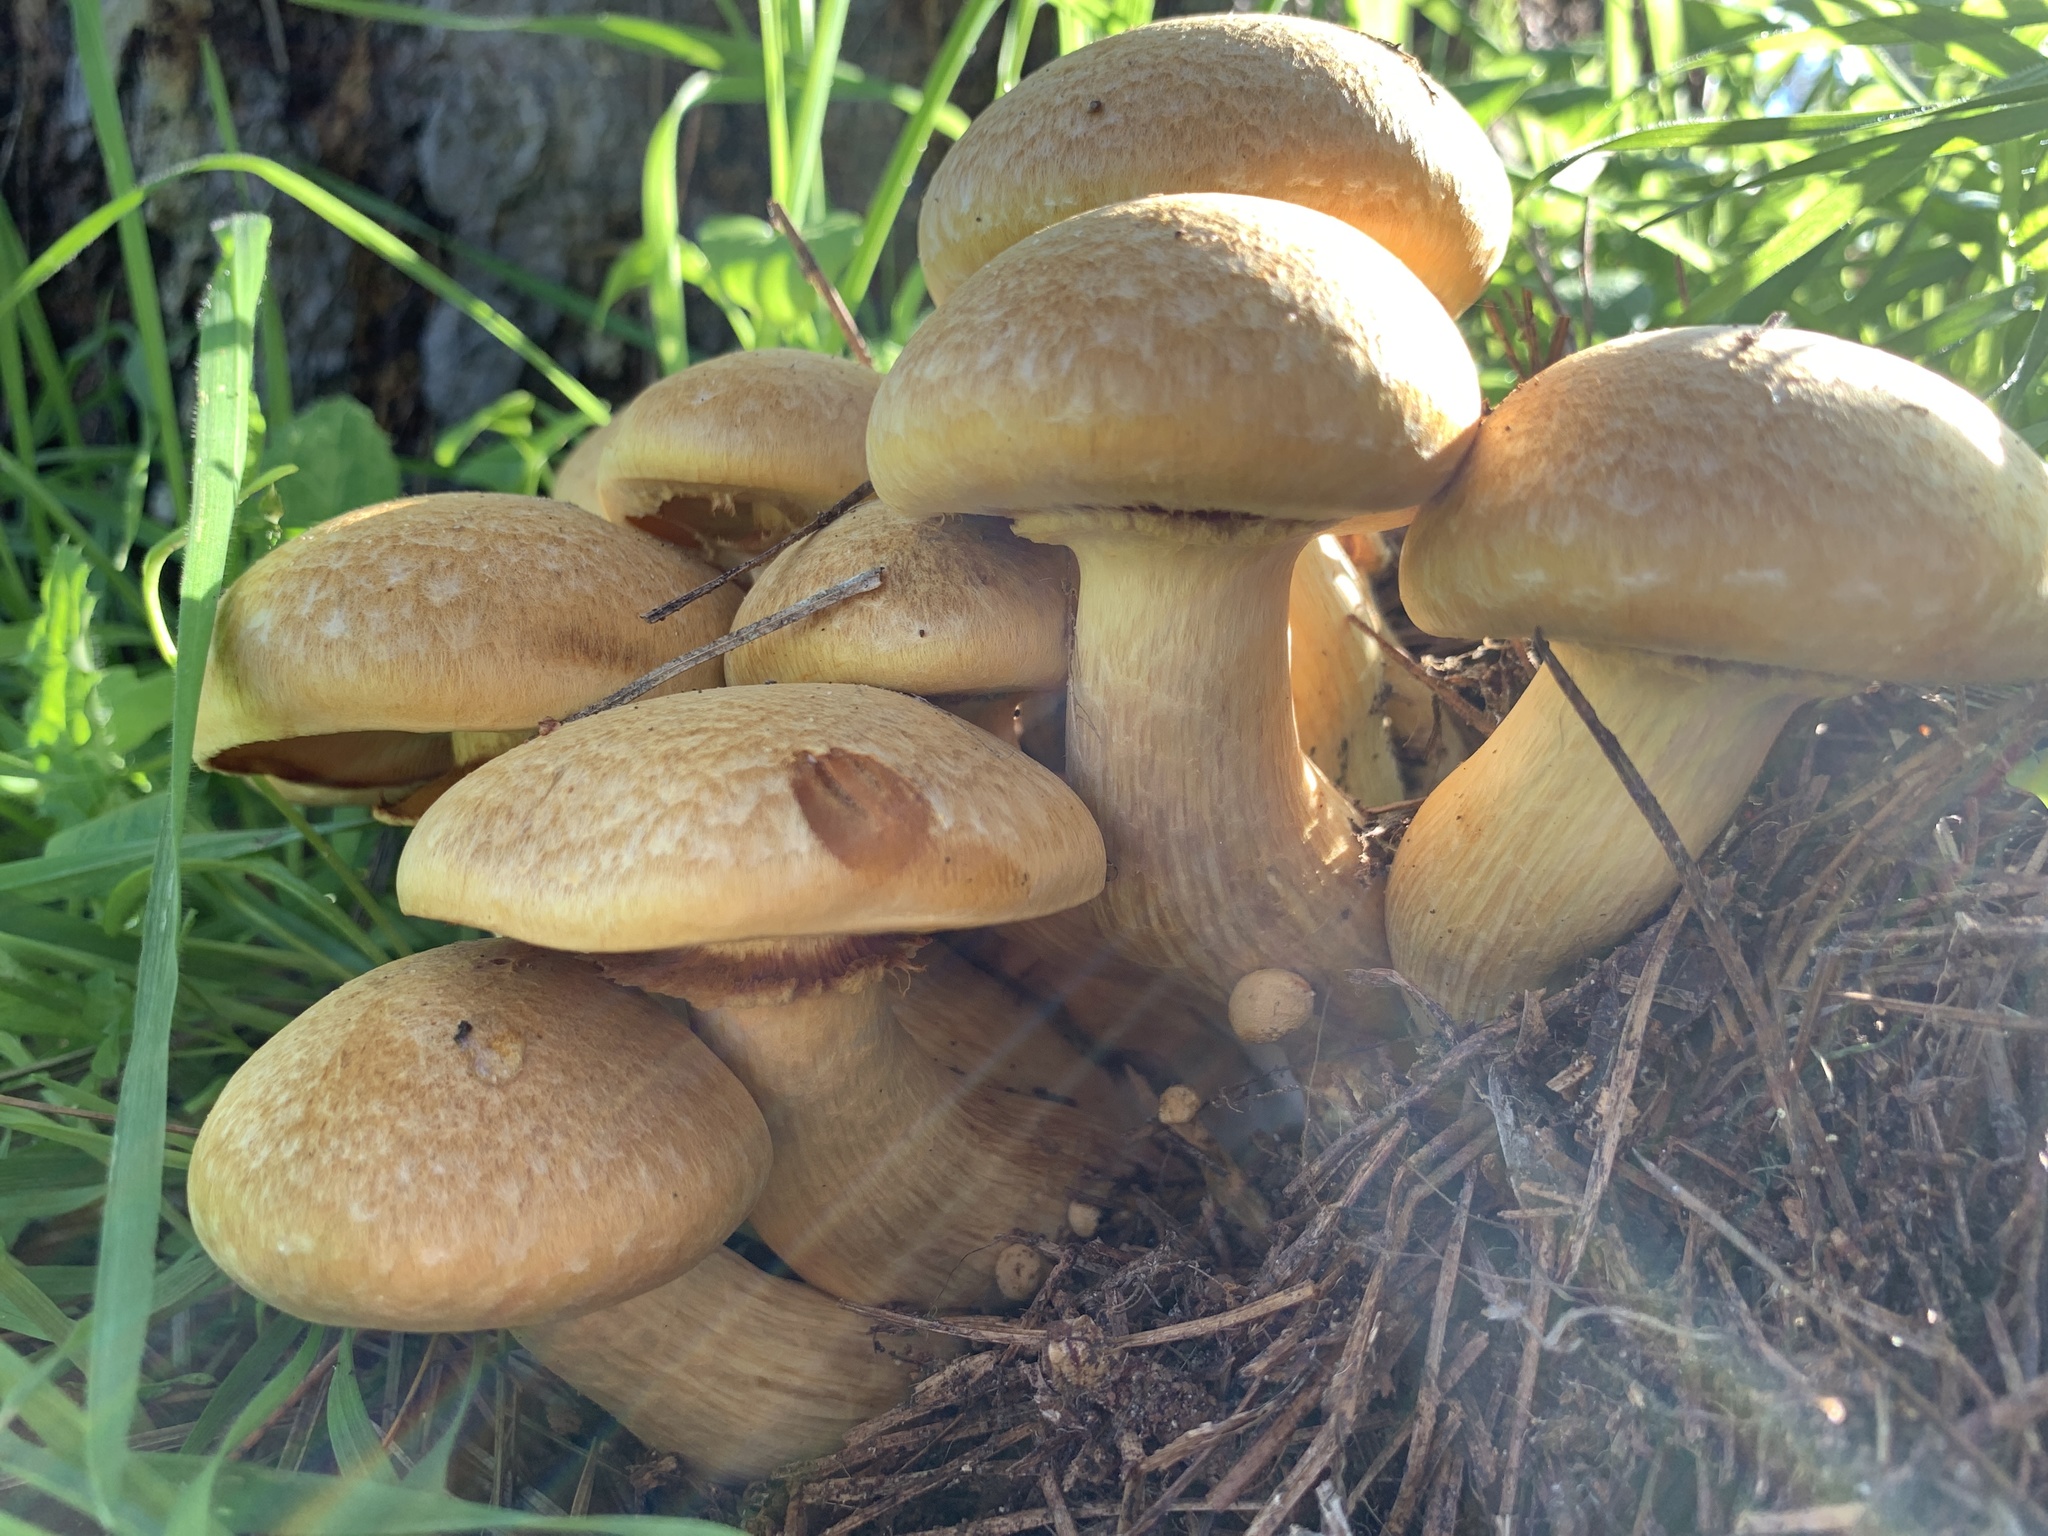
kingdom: Fungi
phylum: Basidiomycota
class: Agaricomycetes
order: Agaricales
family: Hymenogastraceae
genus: Gymnopilus
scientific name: Gymnopilus ventricosus
